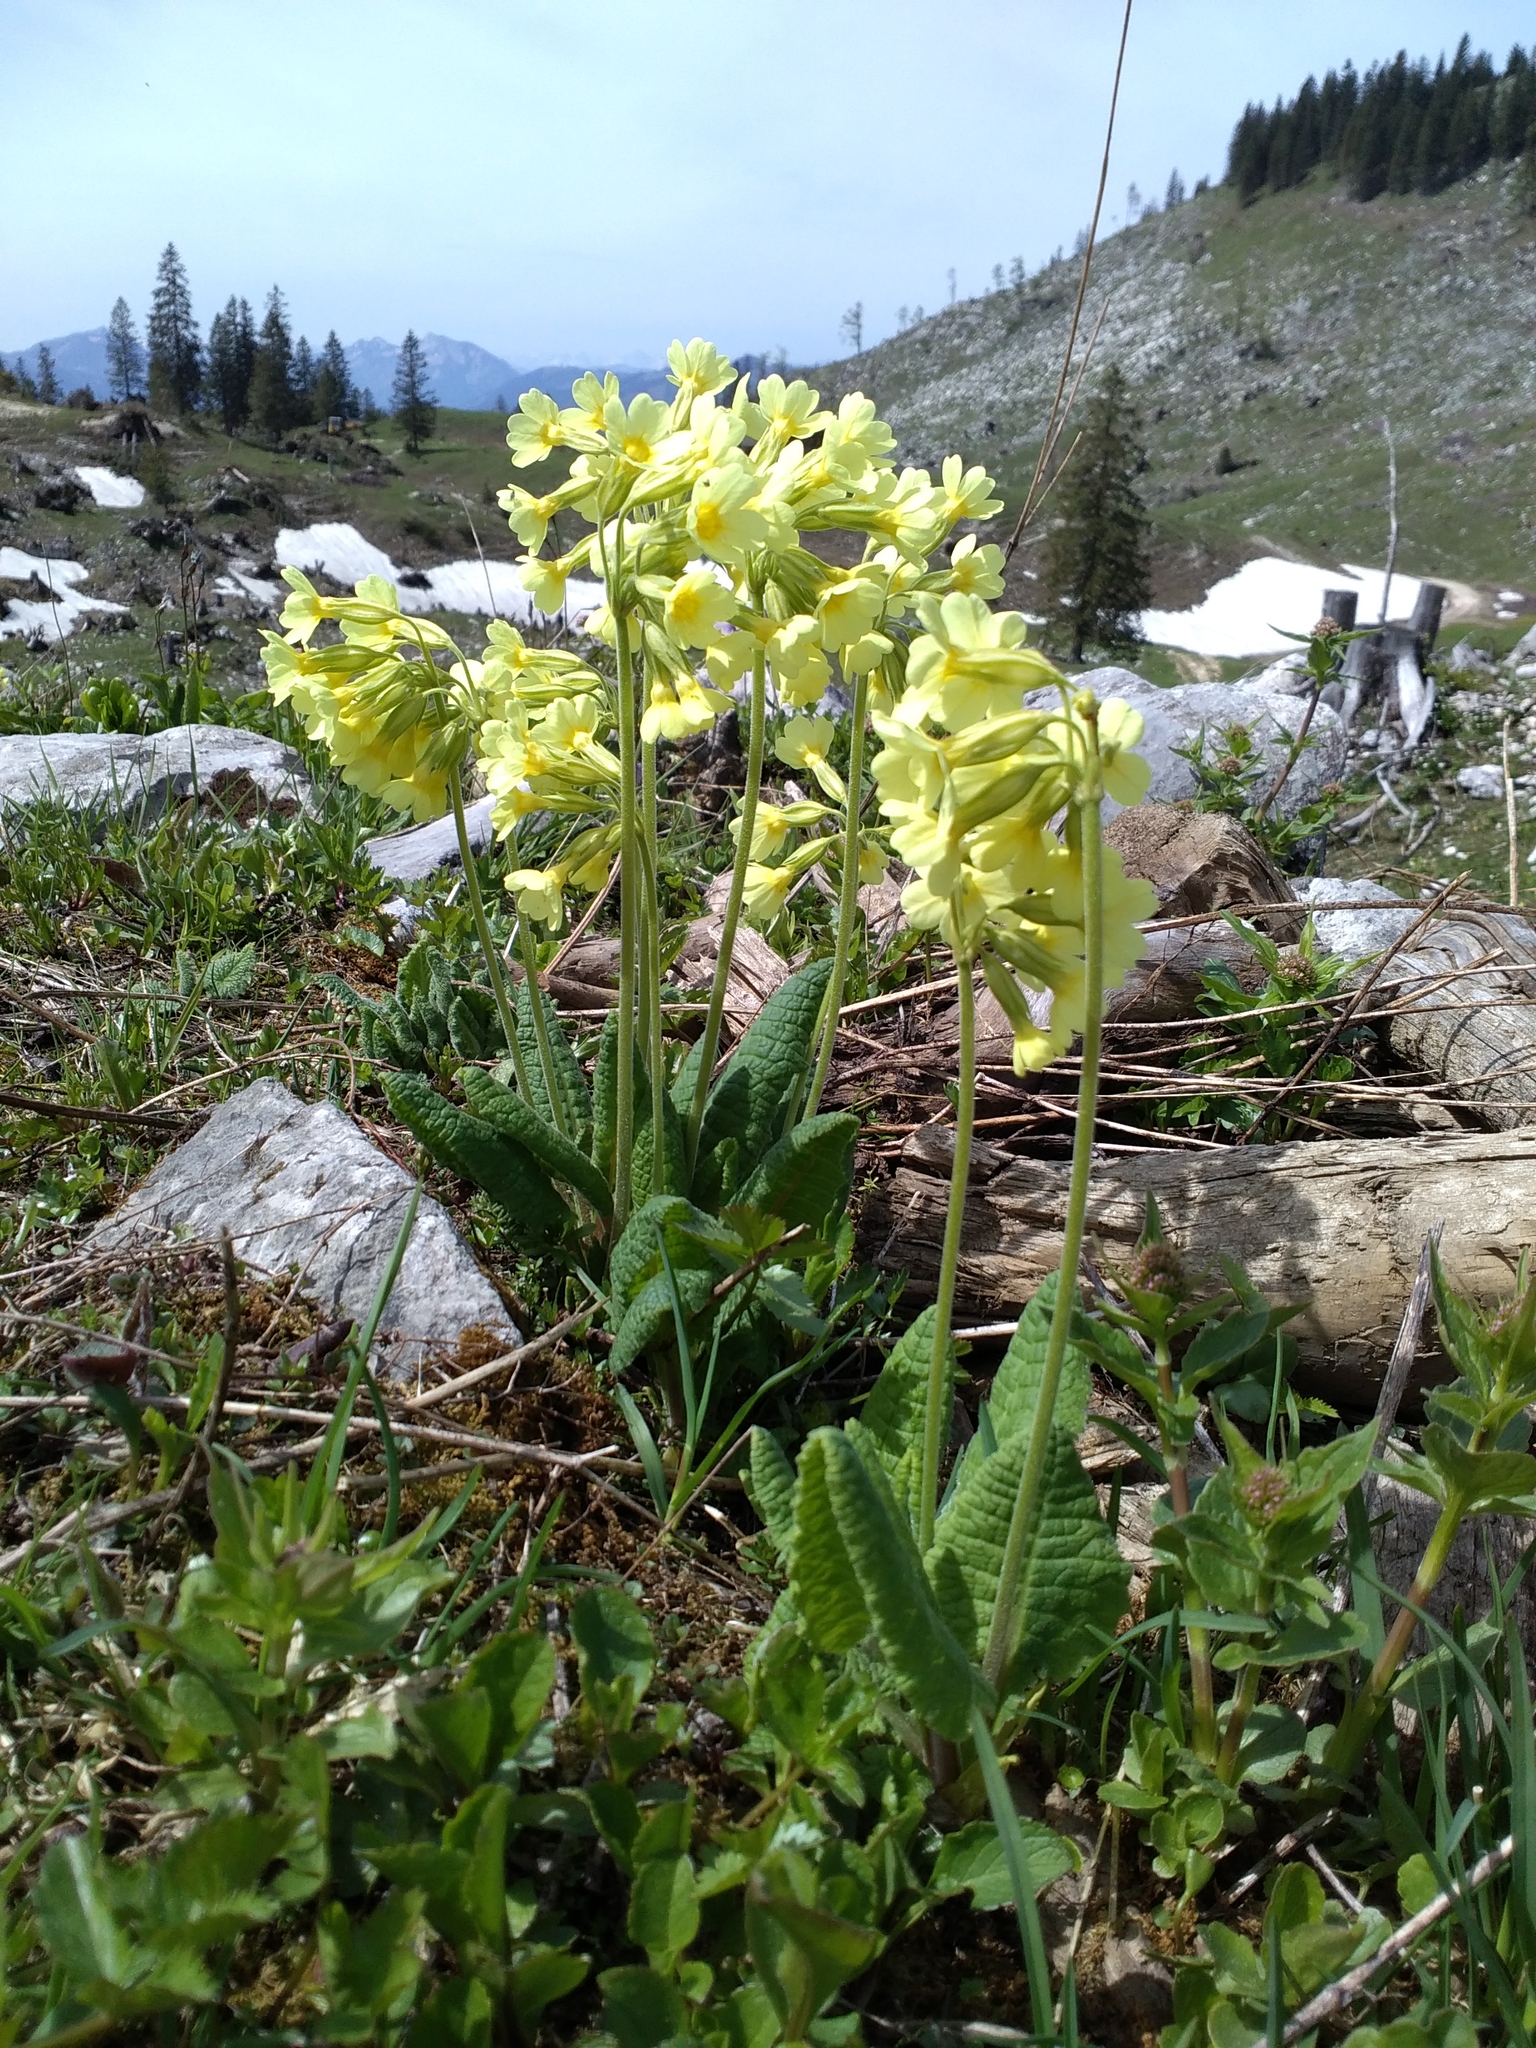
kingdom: Plantae
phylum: Tracheophyta
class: Magnoliopsida
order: Ericales
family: Primulaceae
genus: Primula
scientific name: Primula elatior
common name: Oxlip
